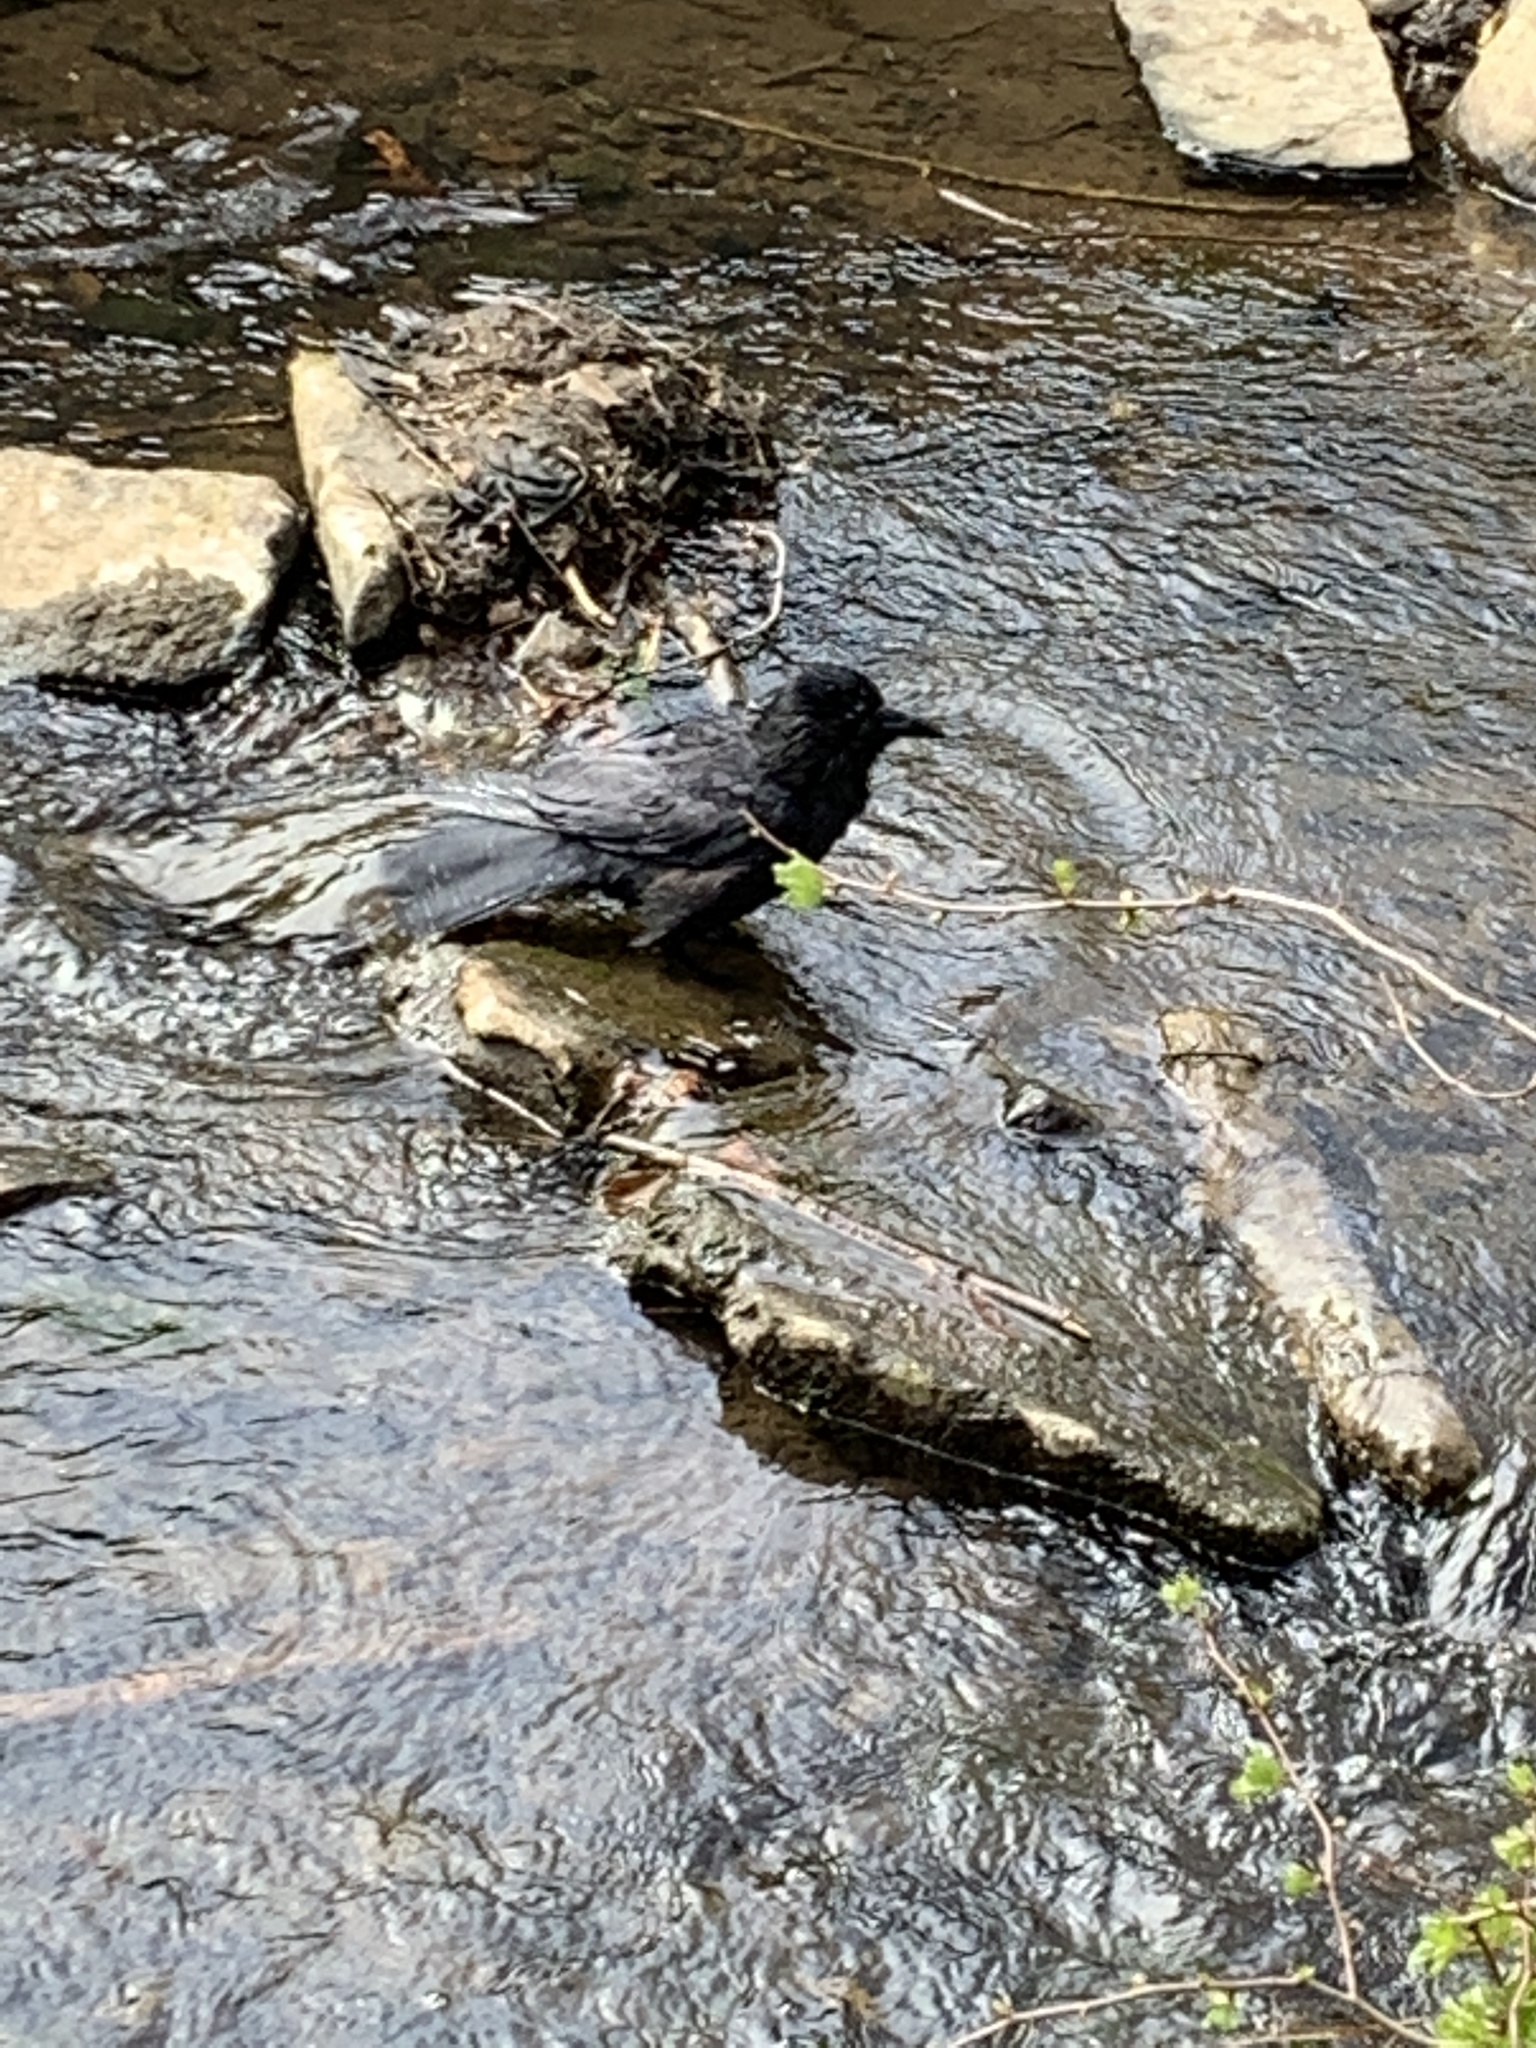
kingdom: Animalia
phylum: Chordata
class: Aves
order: Passeriformes
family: Corvidae
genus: Corvus
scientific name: Corvus corone
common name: Carrion crow
